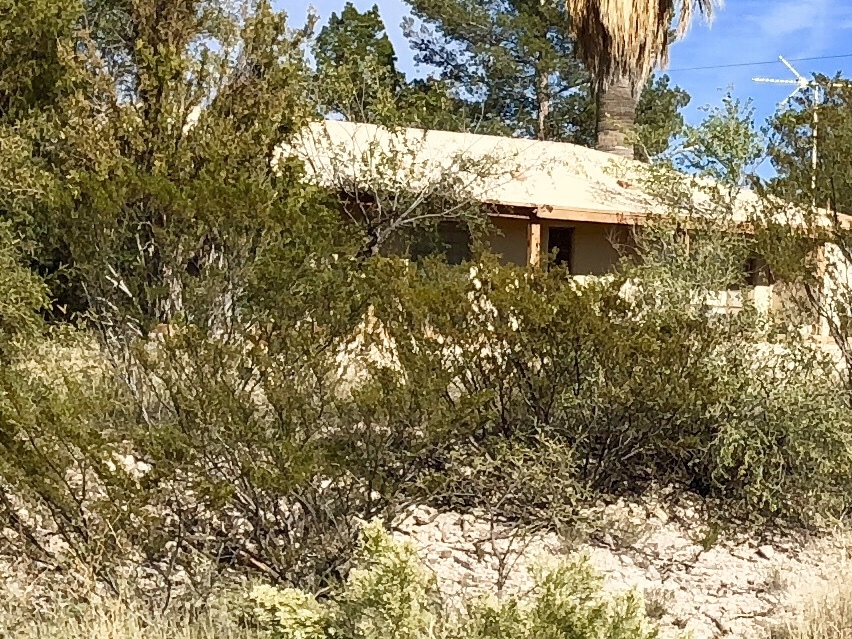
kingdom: Plantae
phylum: Tracheophyta
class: Magnoliopsida
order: Zygophyllales
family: Zygophyllaceae
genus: Larrea
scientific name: Larrea tridentata
